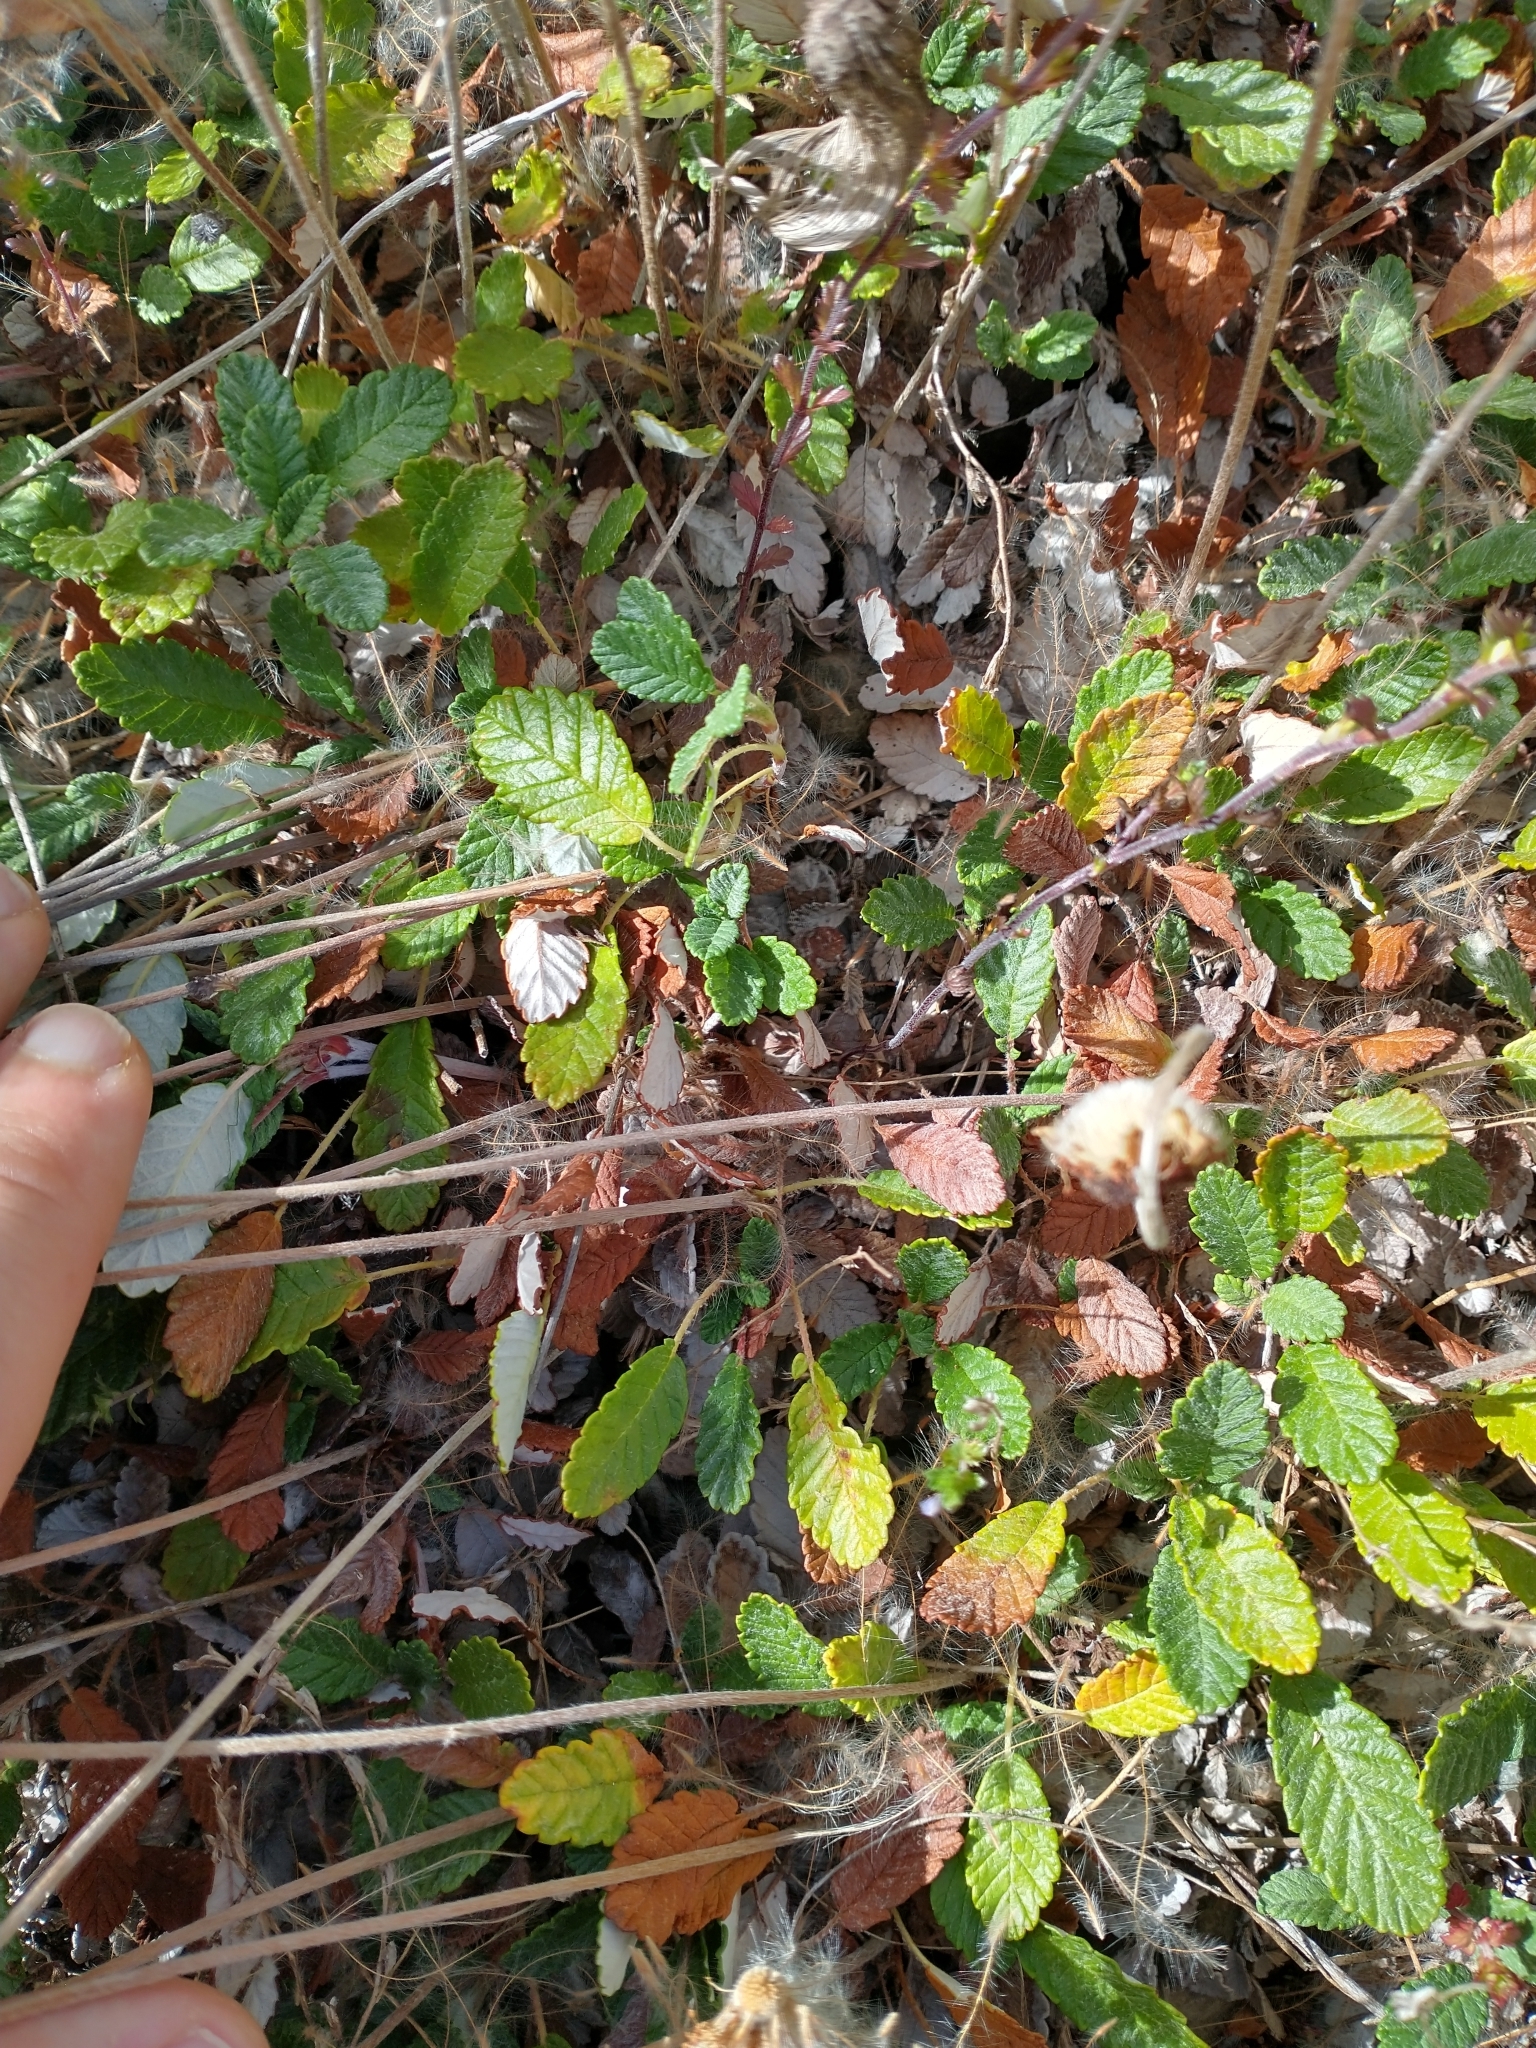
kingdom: Plantae
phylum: Tracheophyta
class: Magnoliopsida
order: Rosales
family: Rosaceae
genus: Dryas
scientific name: Dryas drummondii
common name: Drummond's dryad
